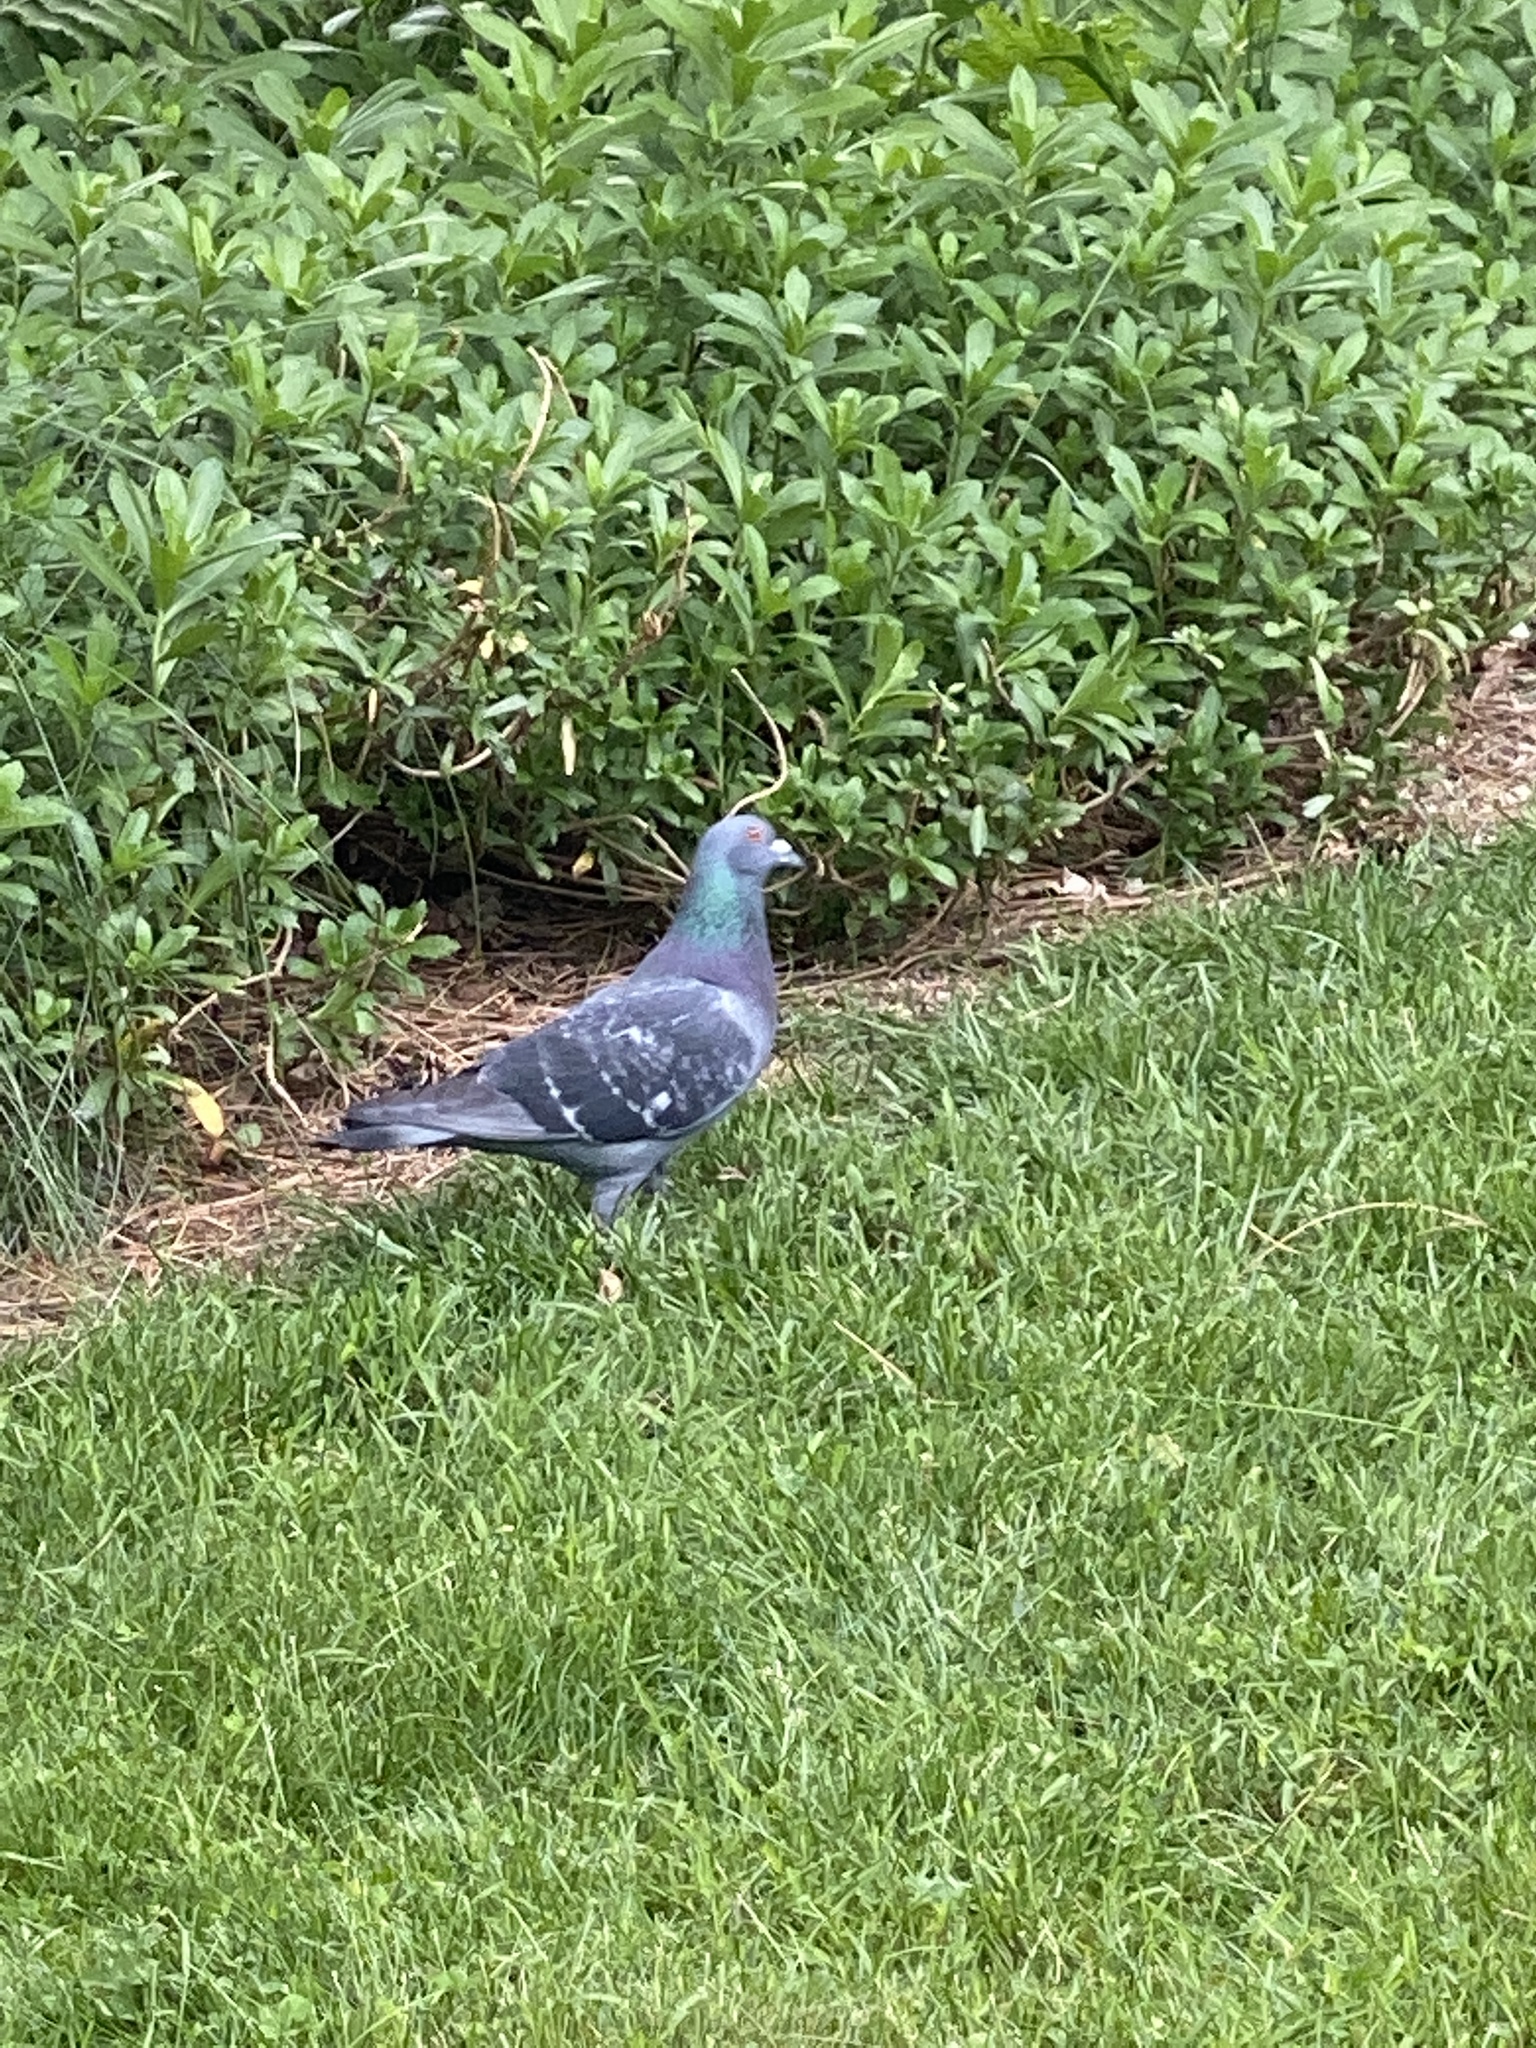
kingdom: Animalia
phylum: Chordata
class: Aves
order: Columbiformes
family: Columbidae
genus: Columba
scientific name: Columba livia
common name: Rock pigeon
